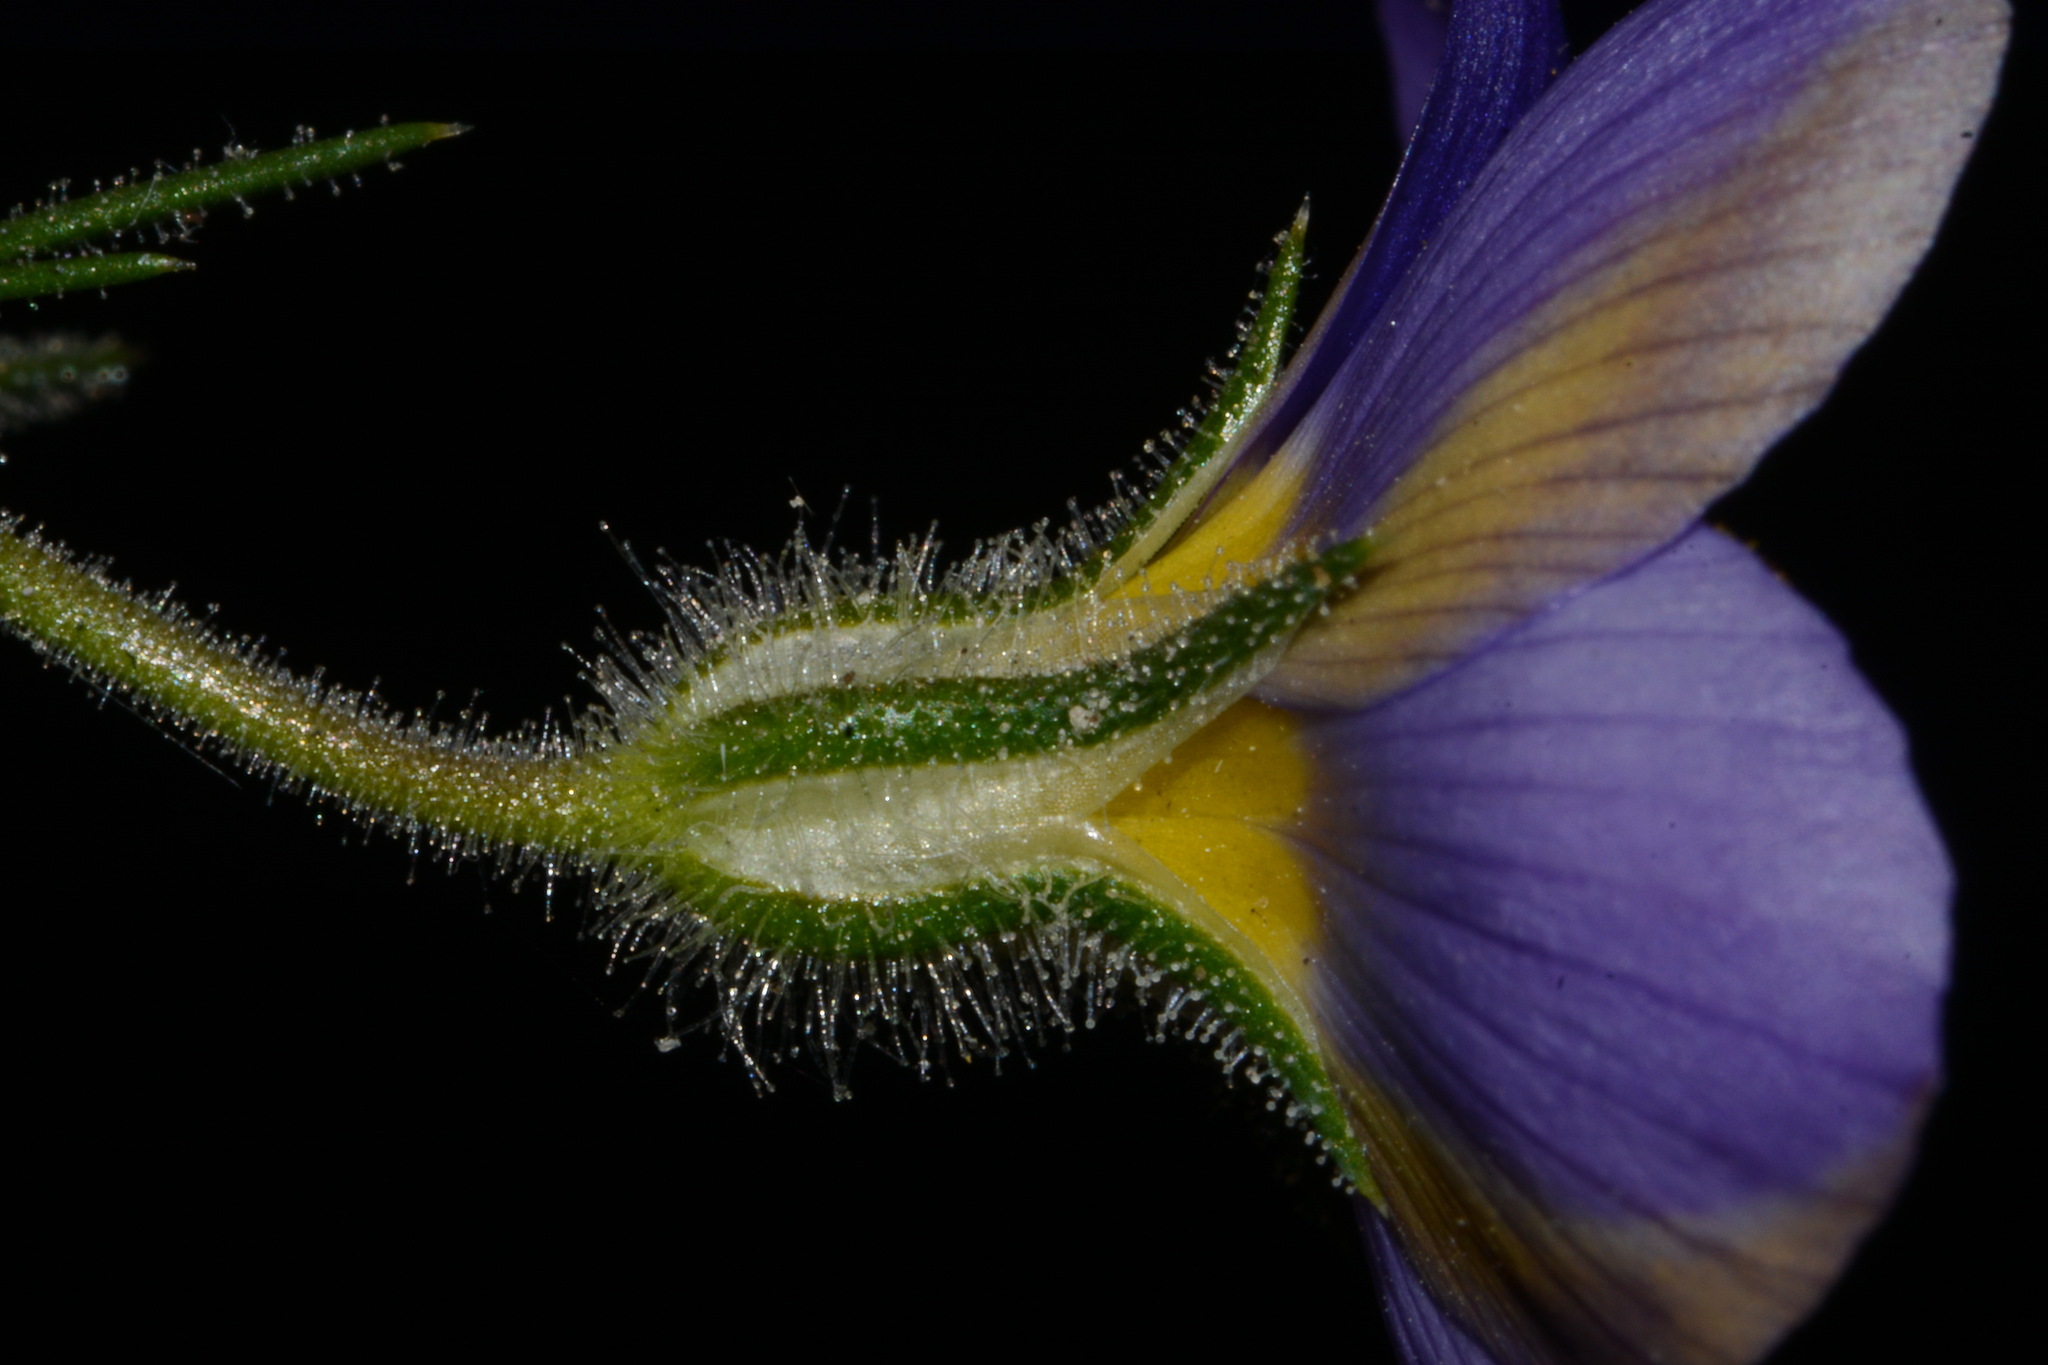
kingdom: Plantae
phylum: Tracheophyta
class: Magnoliopsida
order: Ericales
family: Polemoniaceae
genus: Giliastrum
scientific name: Giliastrum acerosum
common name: Bluebowls
